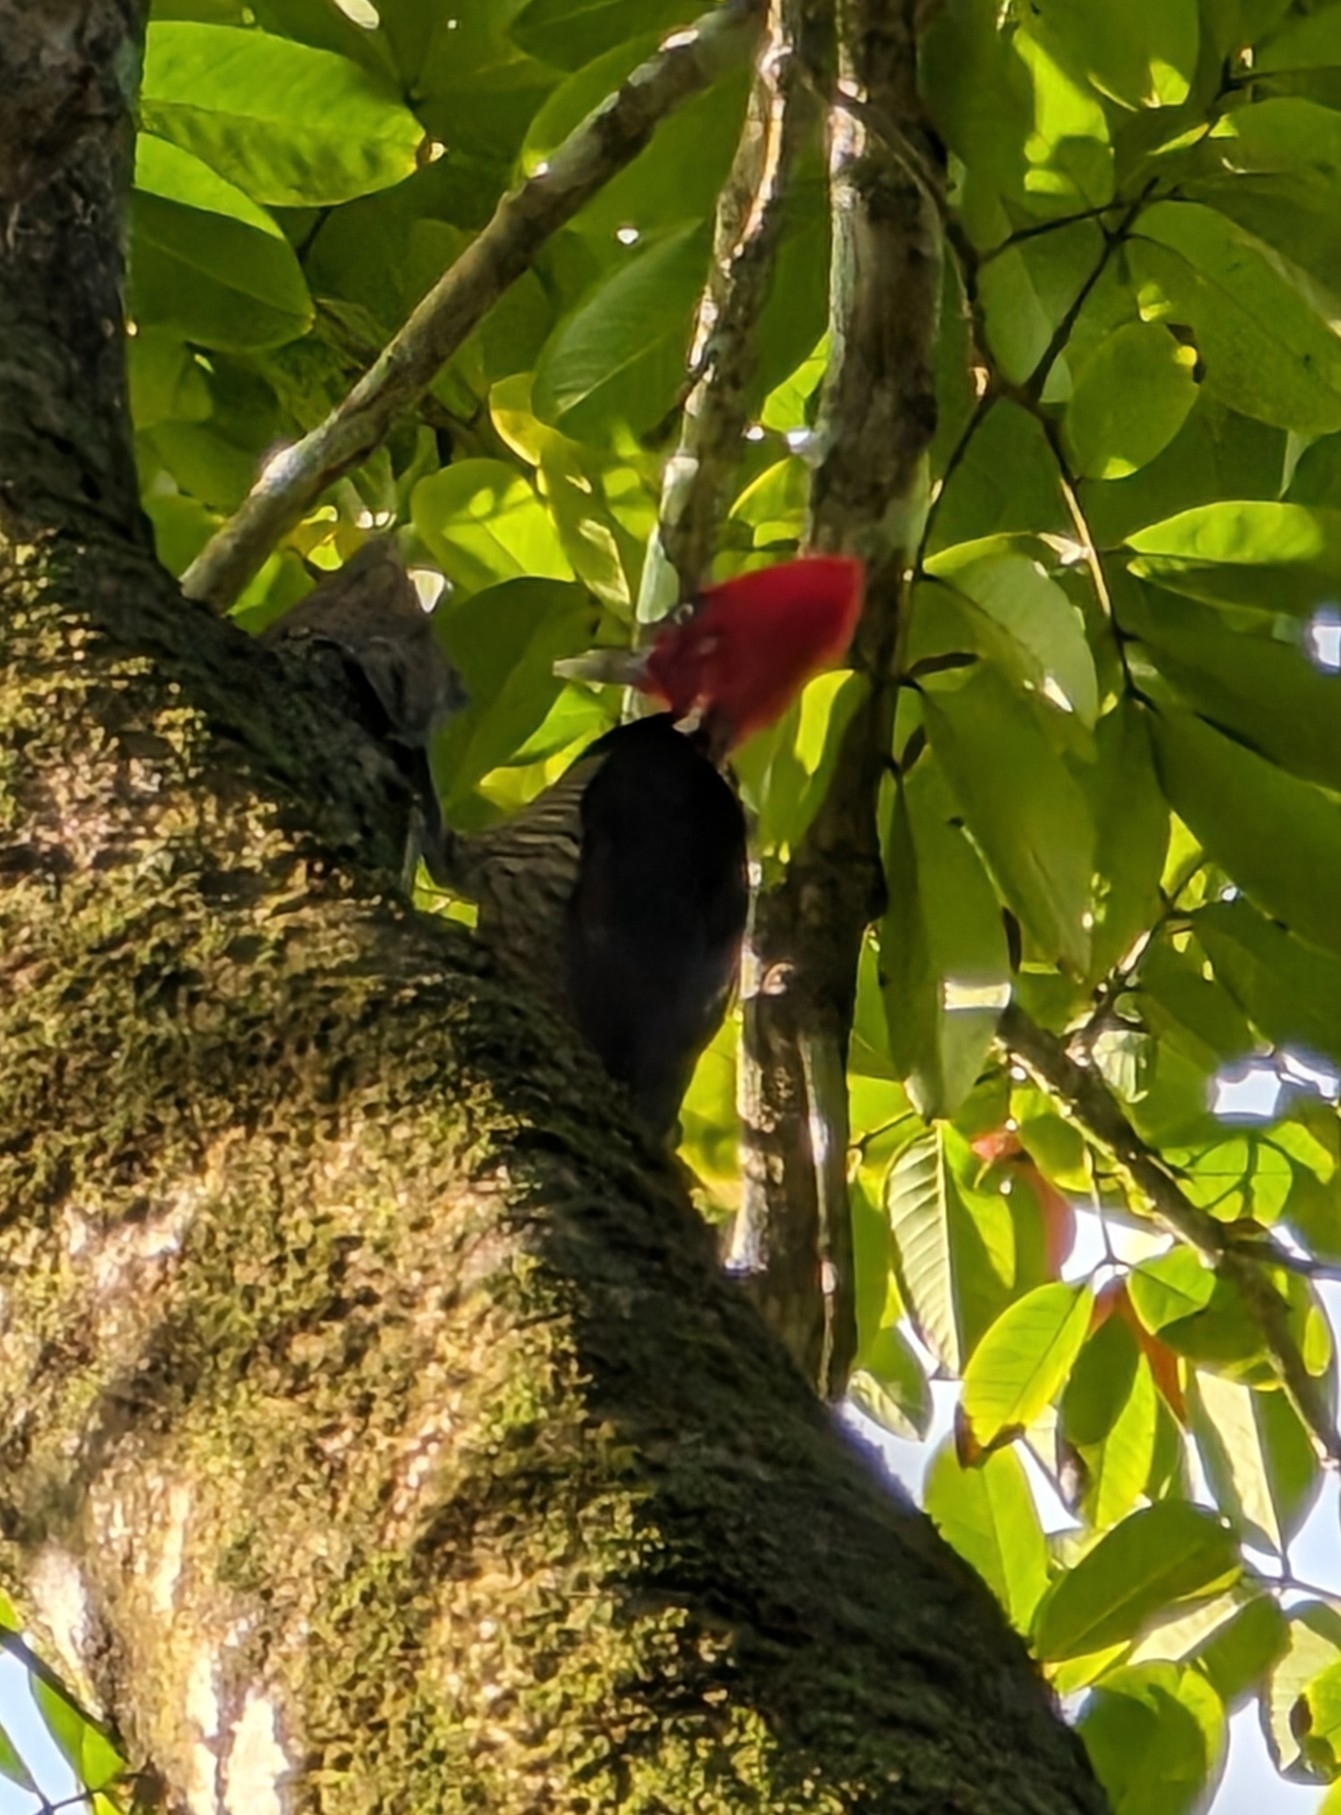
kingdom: Animalia
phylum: Chordata
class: Aves
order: Piciformes
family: Picidae
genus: Campephilus
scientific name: Campephilus guatemalensis
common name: Pale-billed woodpecker
